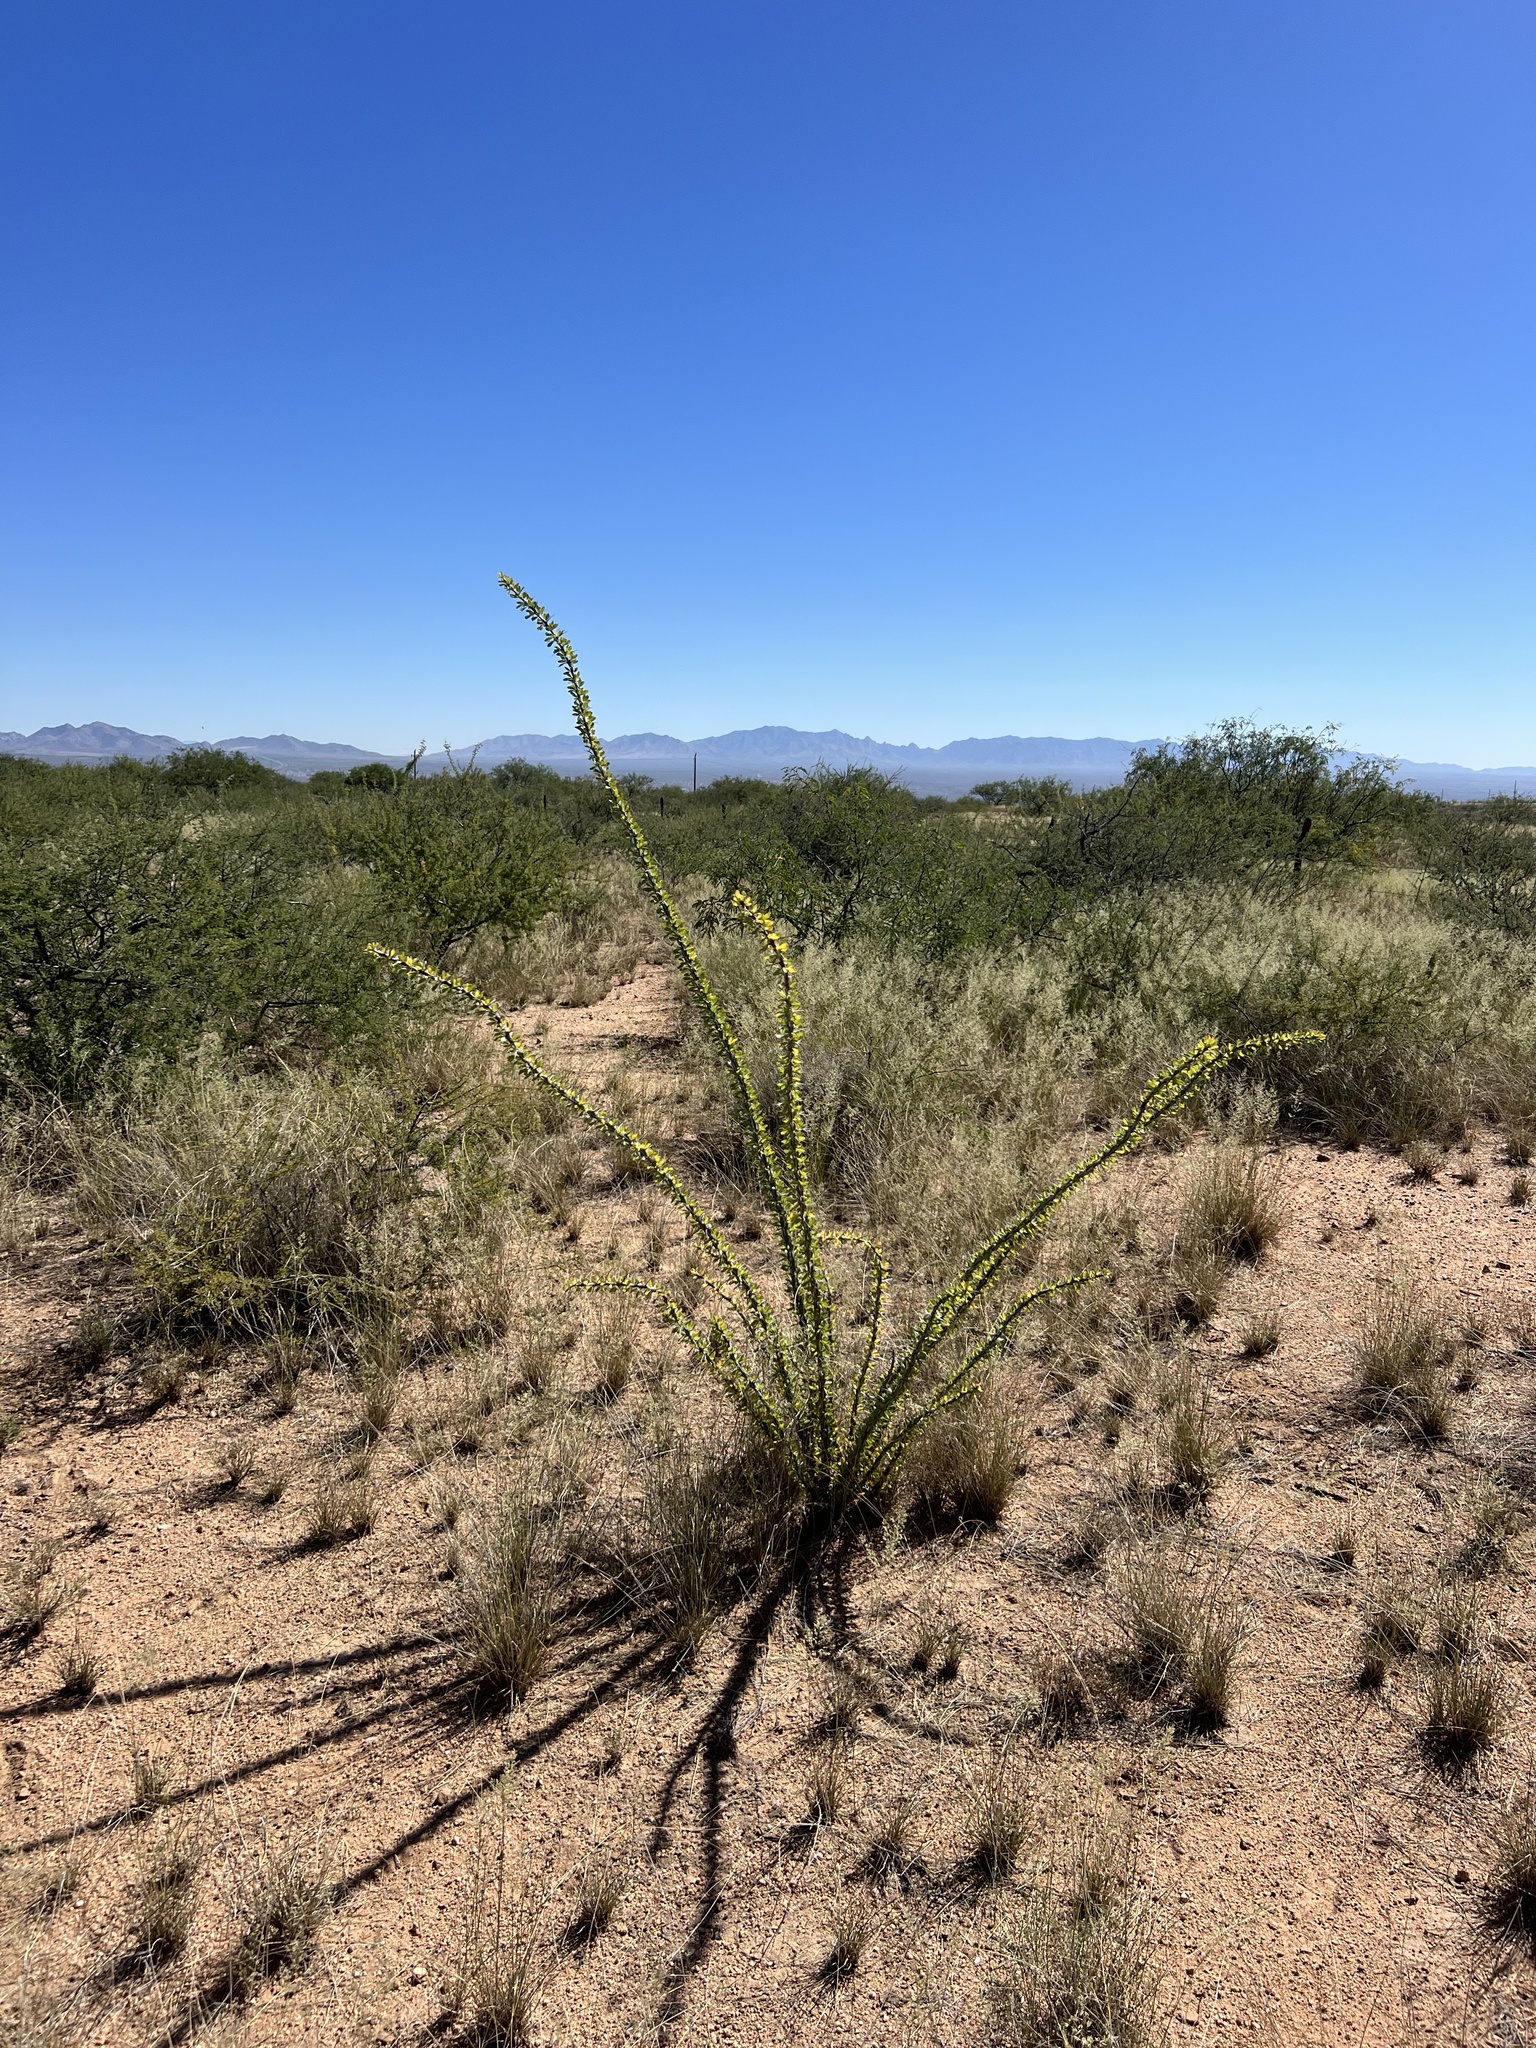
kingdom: Plantae
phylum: Tracheophyta
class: Magnoliopsida
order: Ericales
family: Fouquieriaceae
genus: Fouquieria
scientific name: Fouquieria splendens
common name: Vine-cactus
